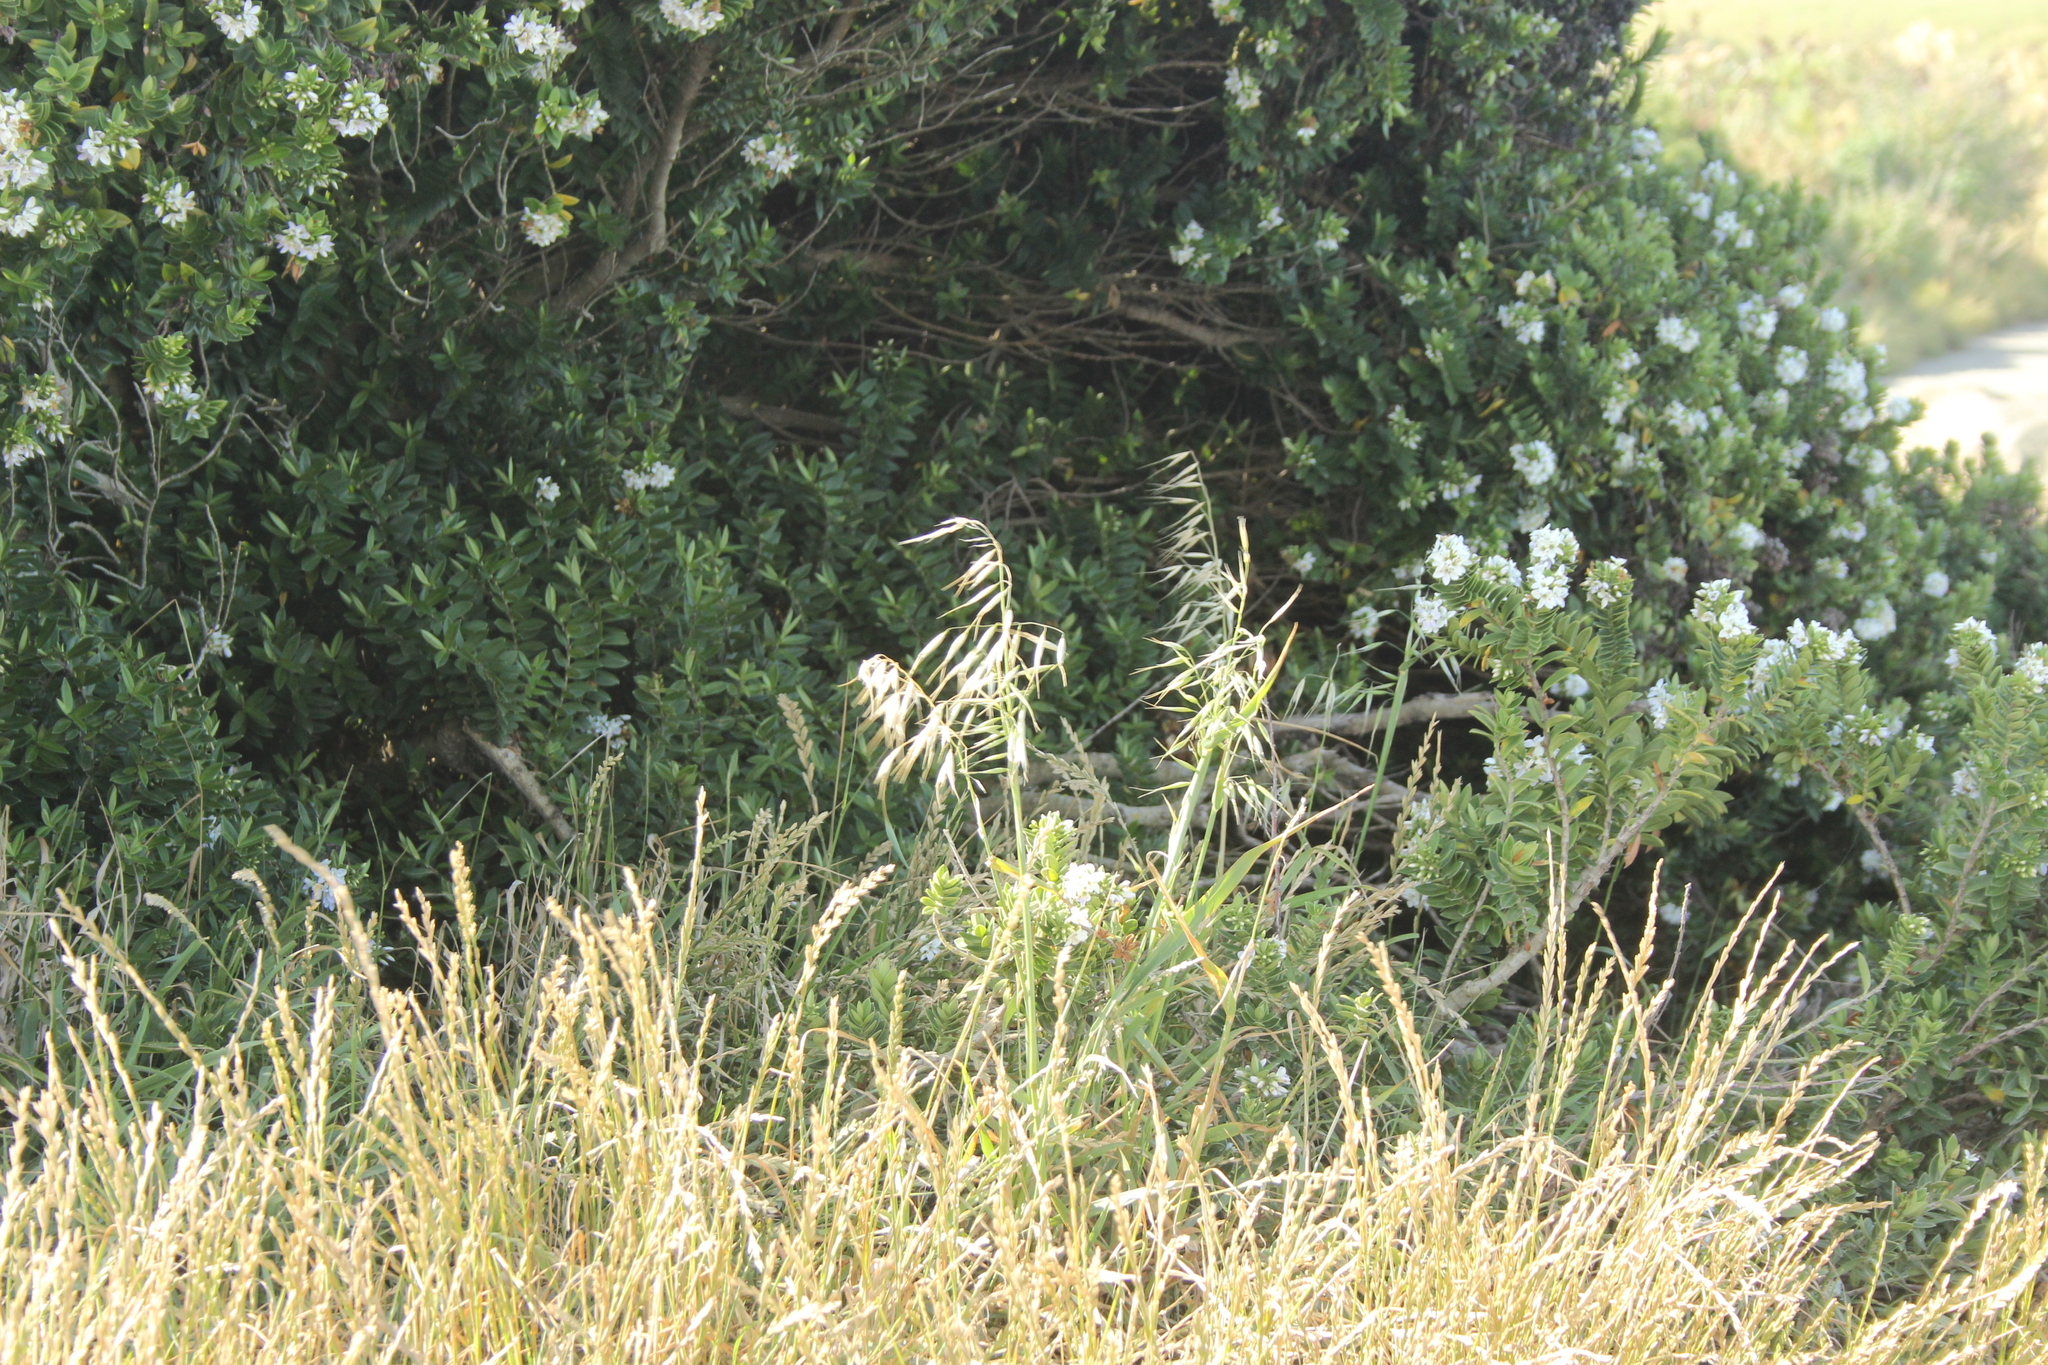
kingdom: Plantae
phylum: Tracheophyta
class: Liliopsida
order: Poales
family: Poaceae
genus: Avena
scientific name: Avena fatua
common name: Wild oat
